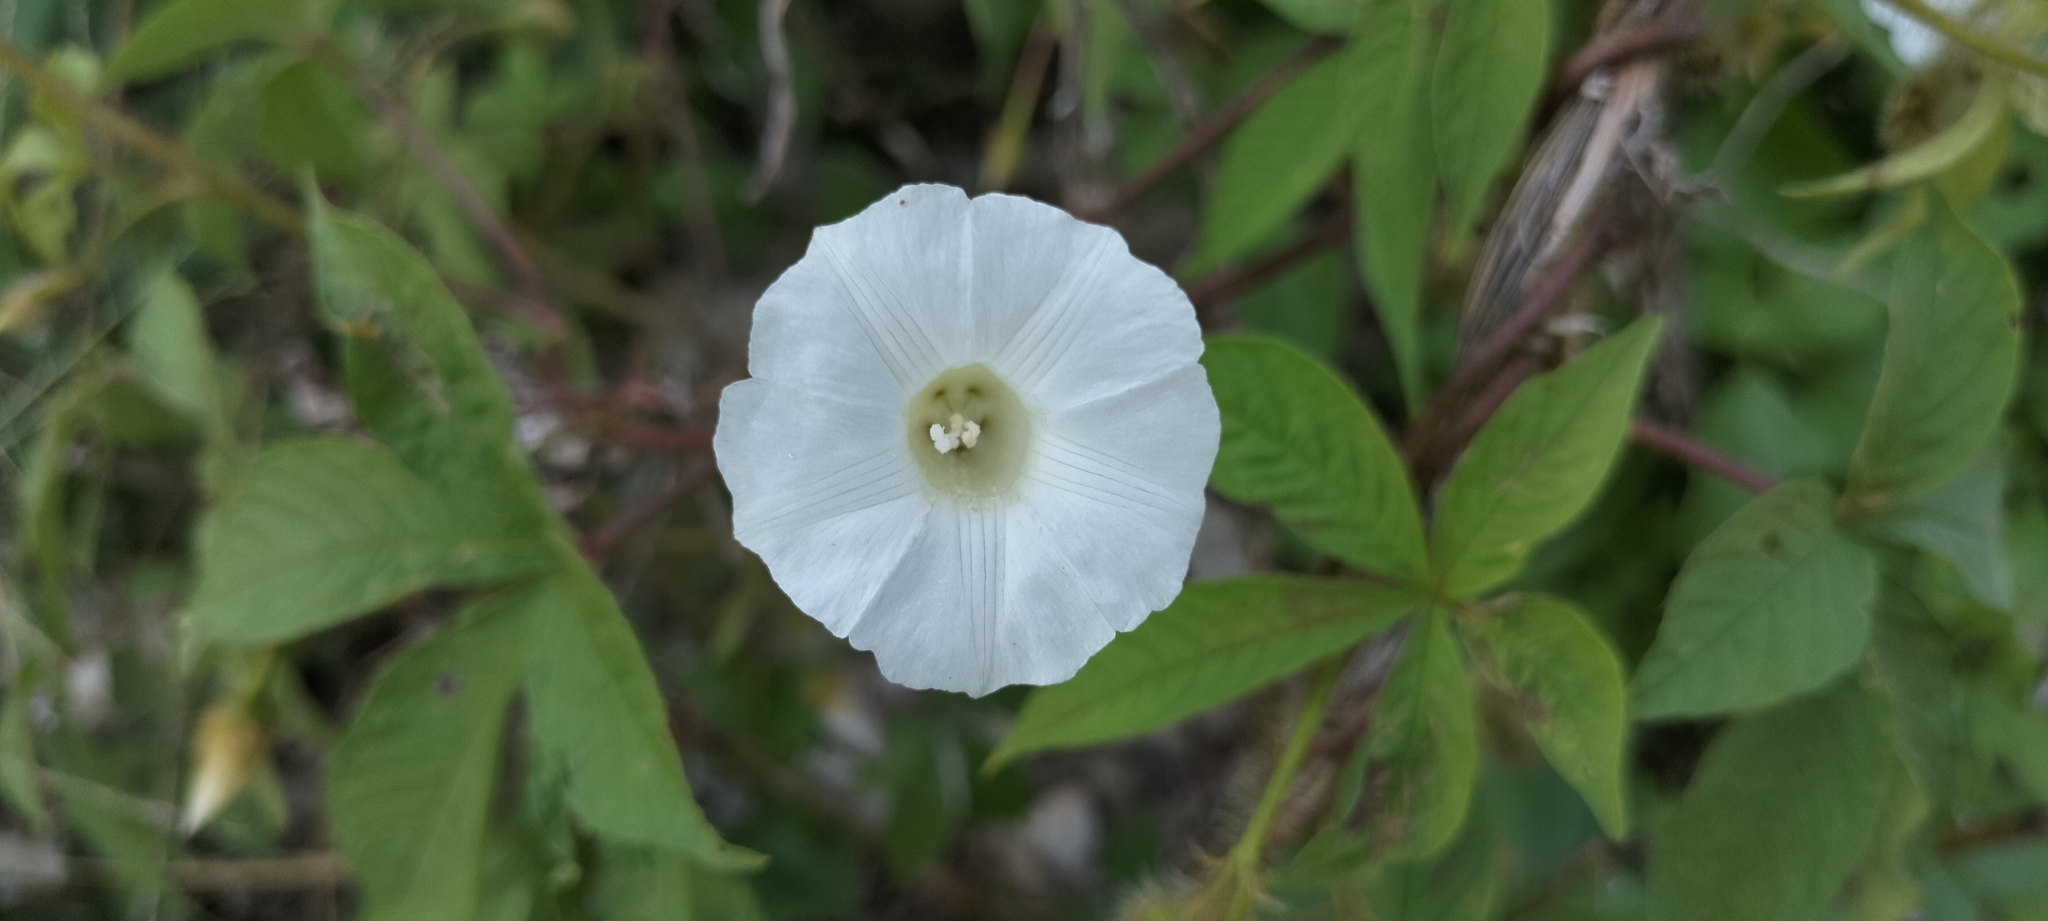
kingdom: Plantae
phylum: Tracheophyta
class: Magnoliopsida
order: Solanales
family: Convolvulaceae
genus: Distimake
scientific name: Distimake aegyptius
